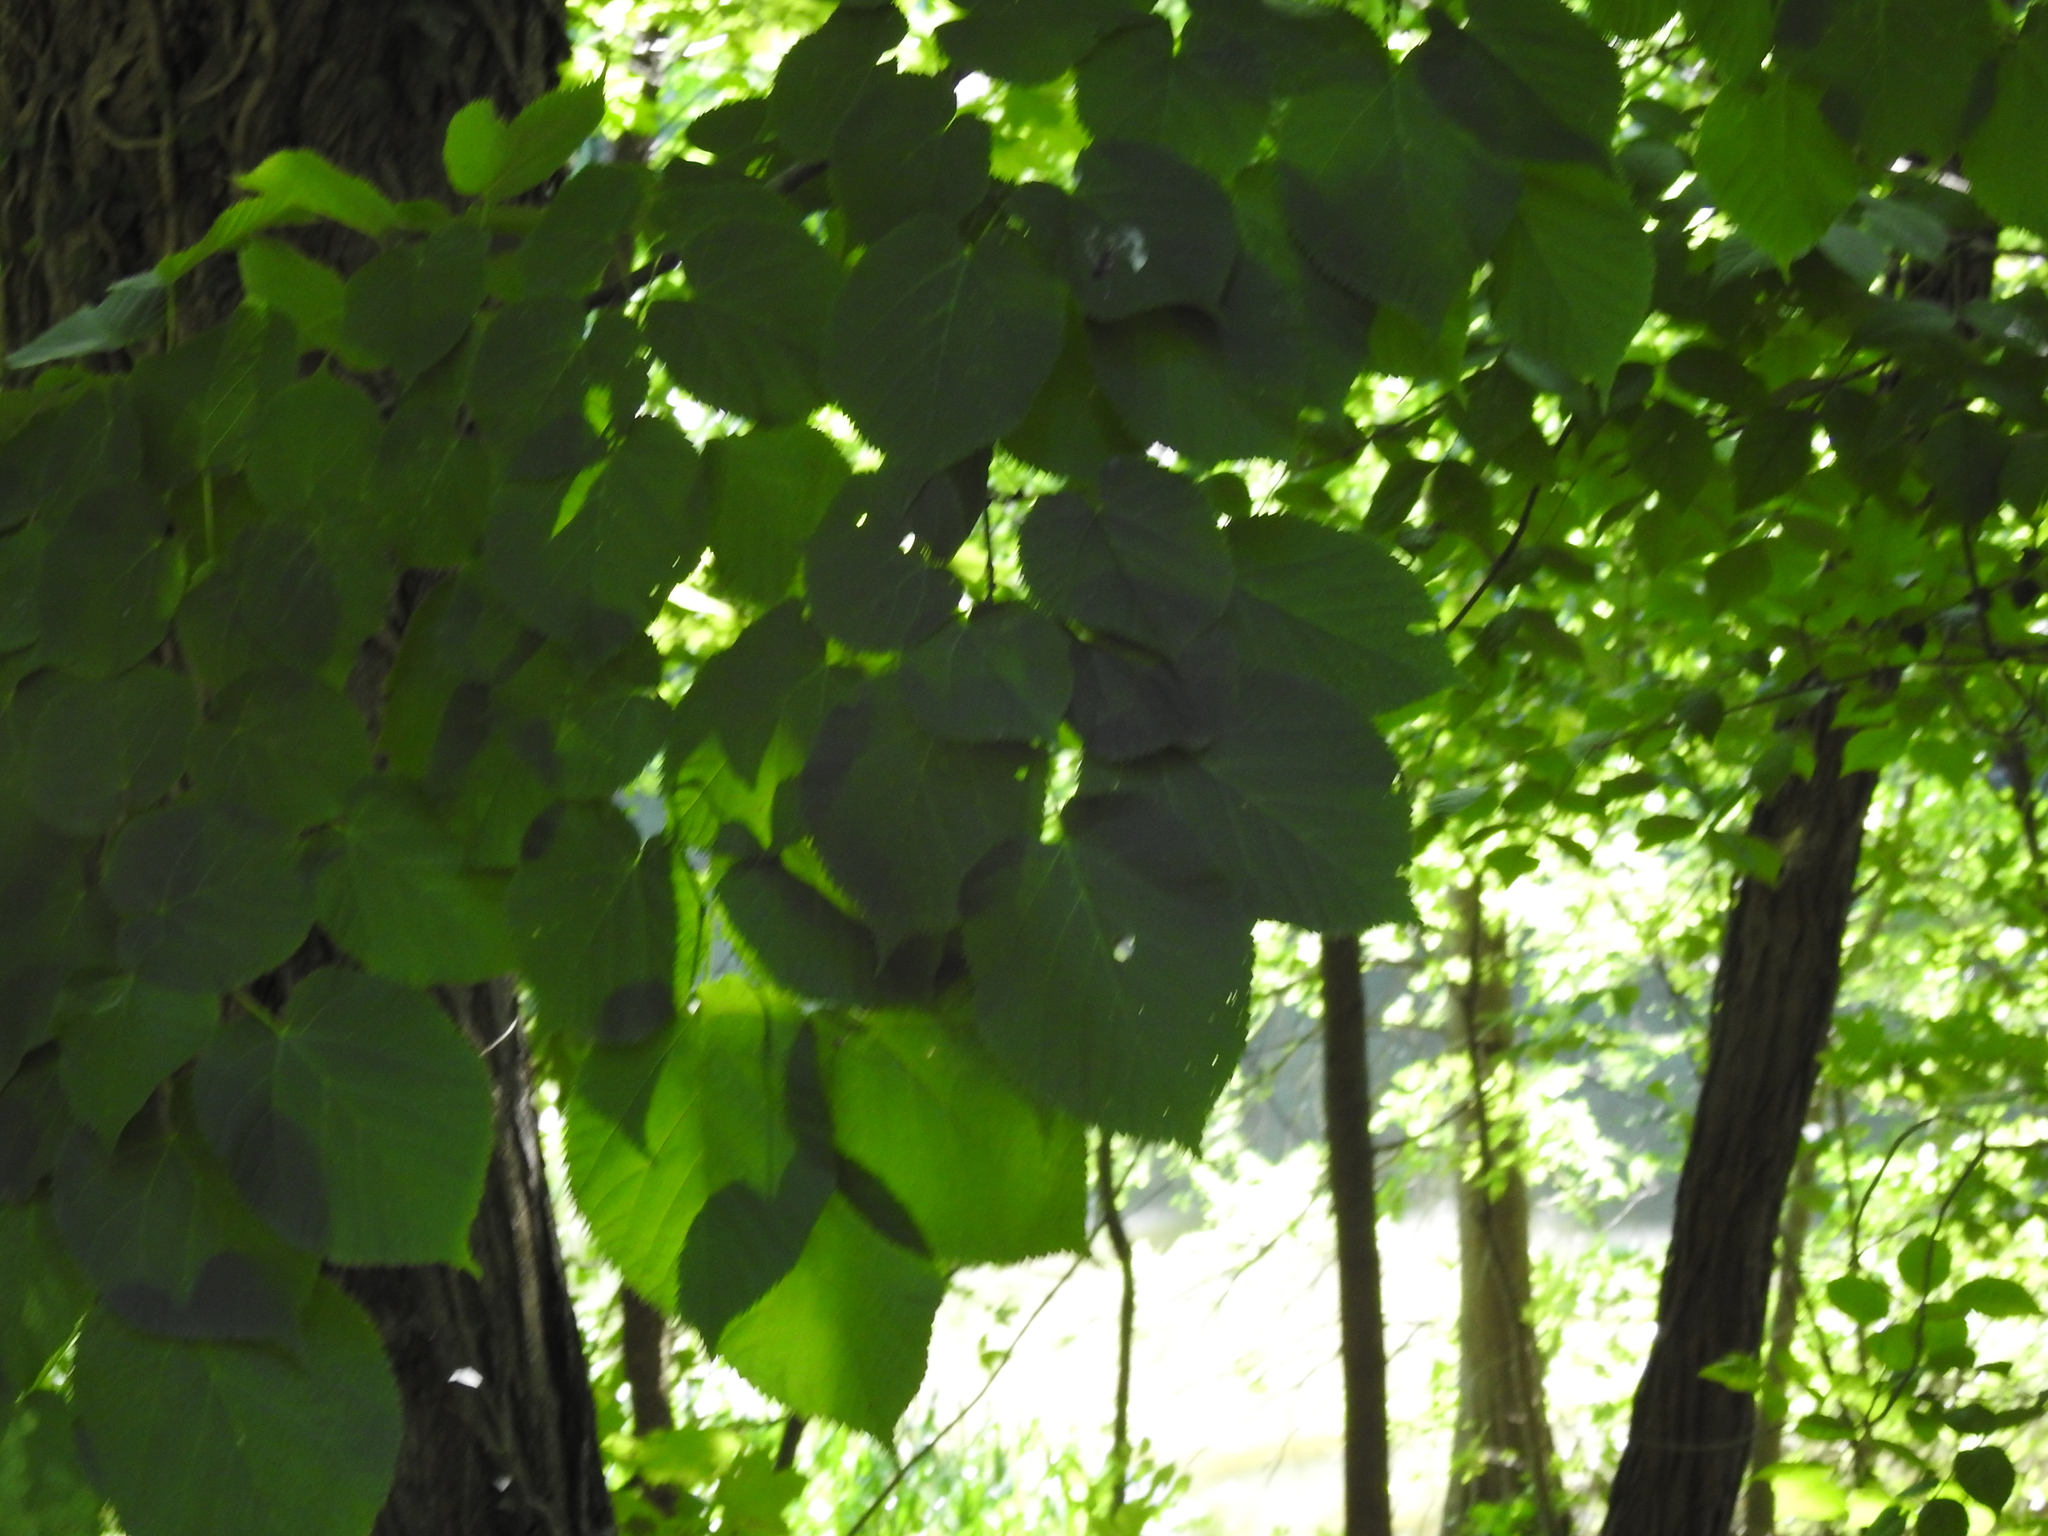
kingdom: Plantae
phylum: Tracheophyta
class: Magnoliopsida
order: Malvales
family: Malvaceae
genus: Tilia
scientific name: Tilia americana
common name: Basswood
